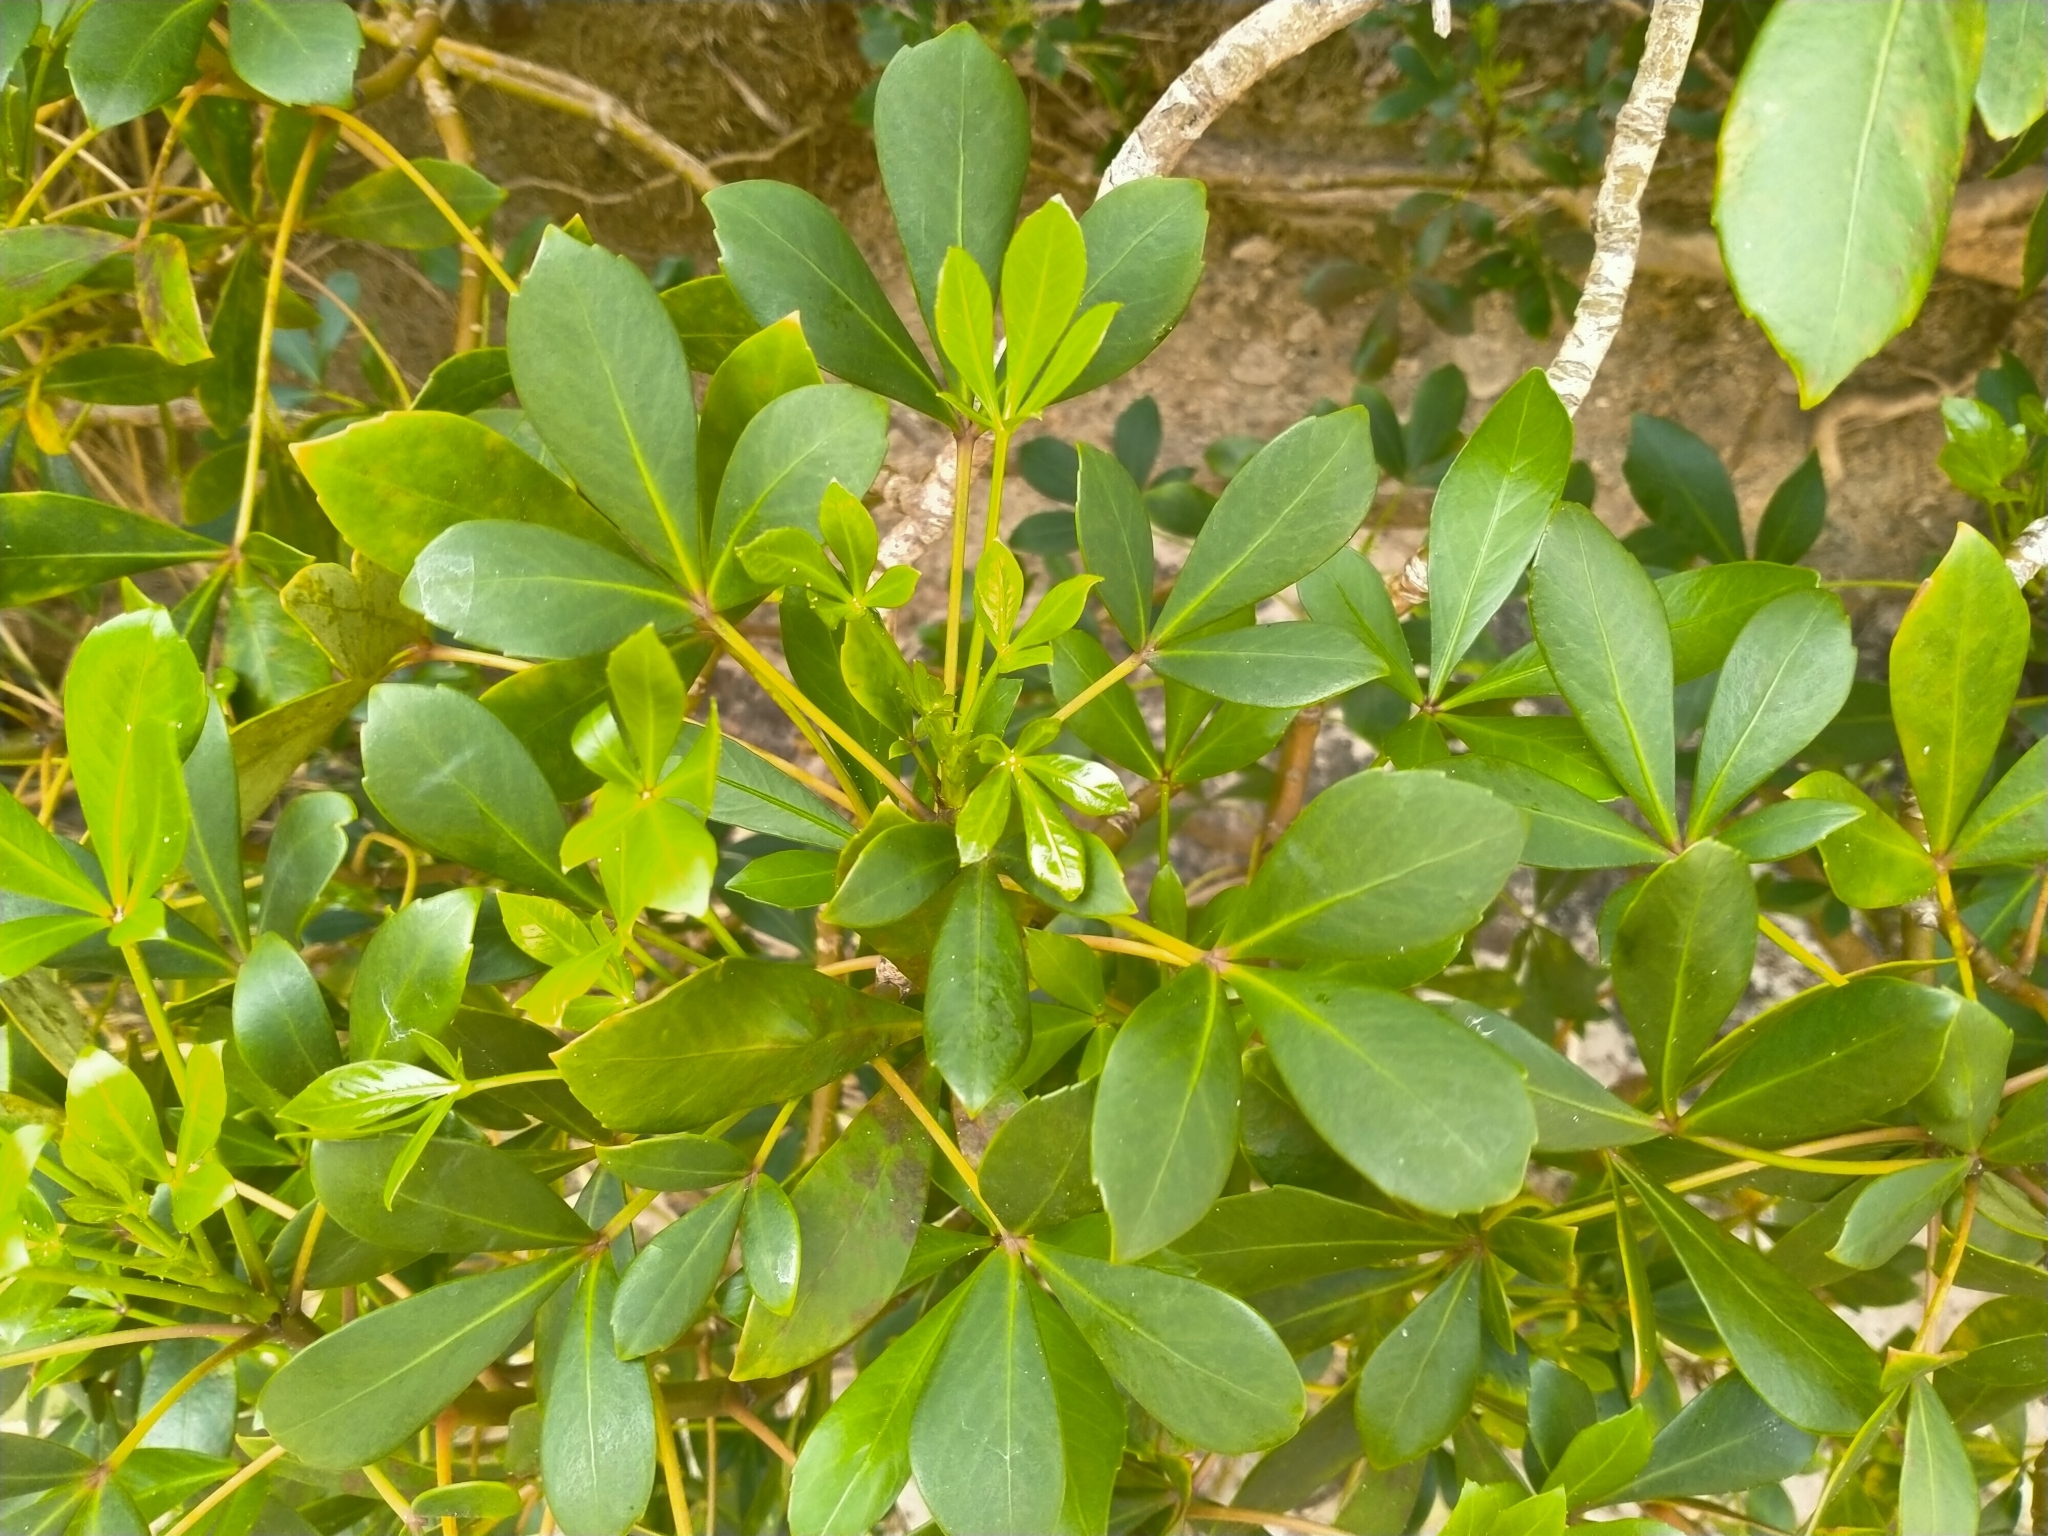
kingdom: Plantae
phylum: Tracheophyta
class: Magnoliopsida
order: Apiales
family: Araliaceae
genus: Pseudopanax
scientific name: Pseudopanax lessonii
